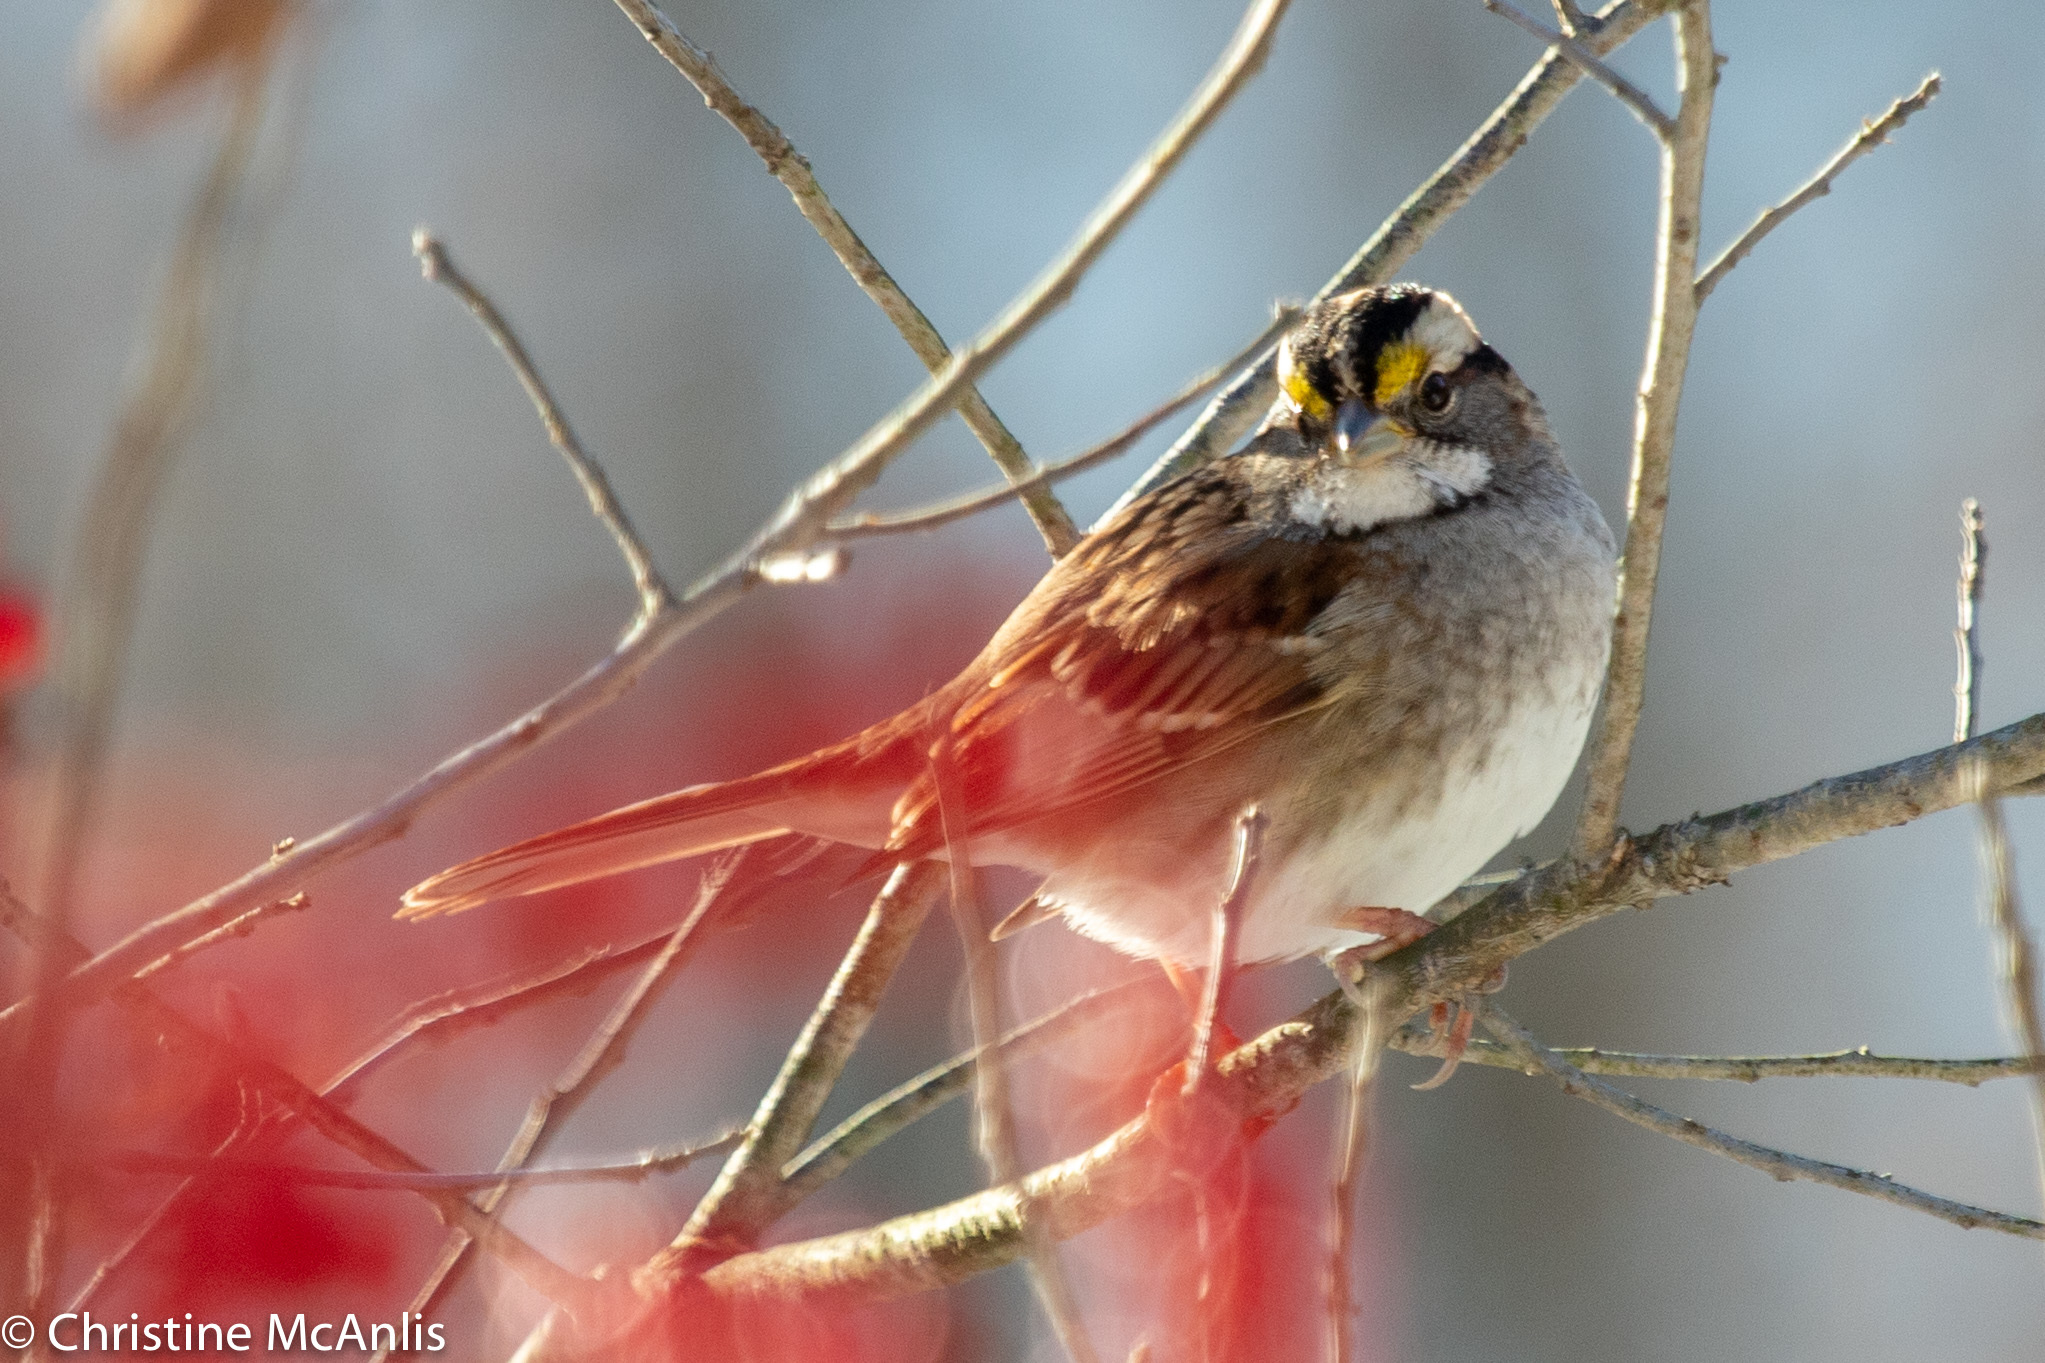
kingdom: Animalia
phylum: Chordata
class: Aves
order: Passeriformes
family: Passerellidae
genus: Zonotrichia
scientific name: Zonotrichia albicollis
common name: White-throated sparrow
